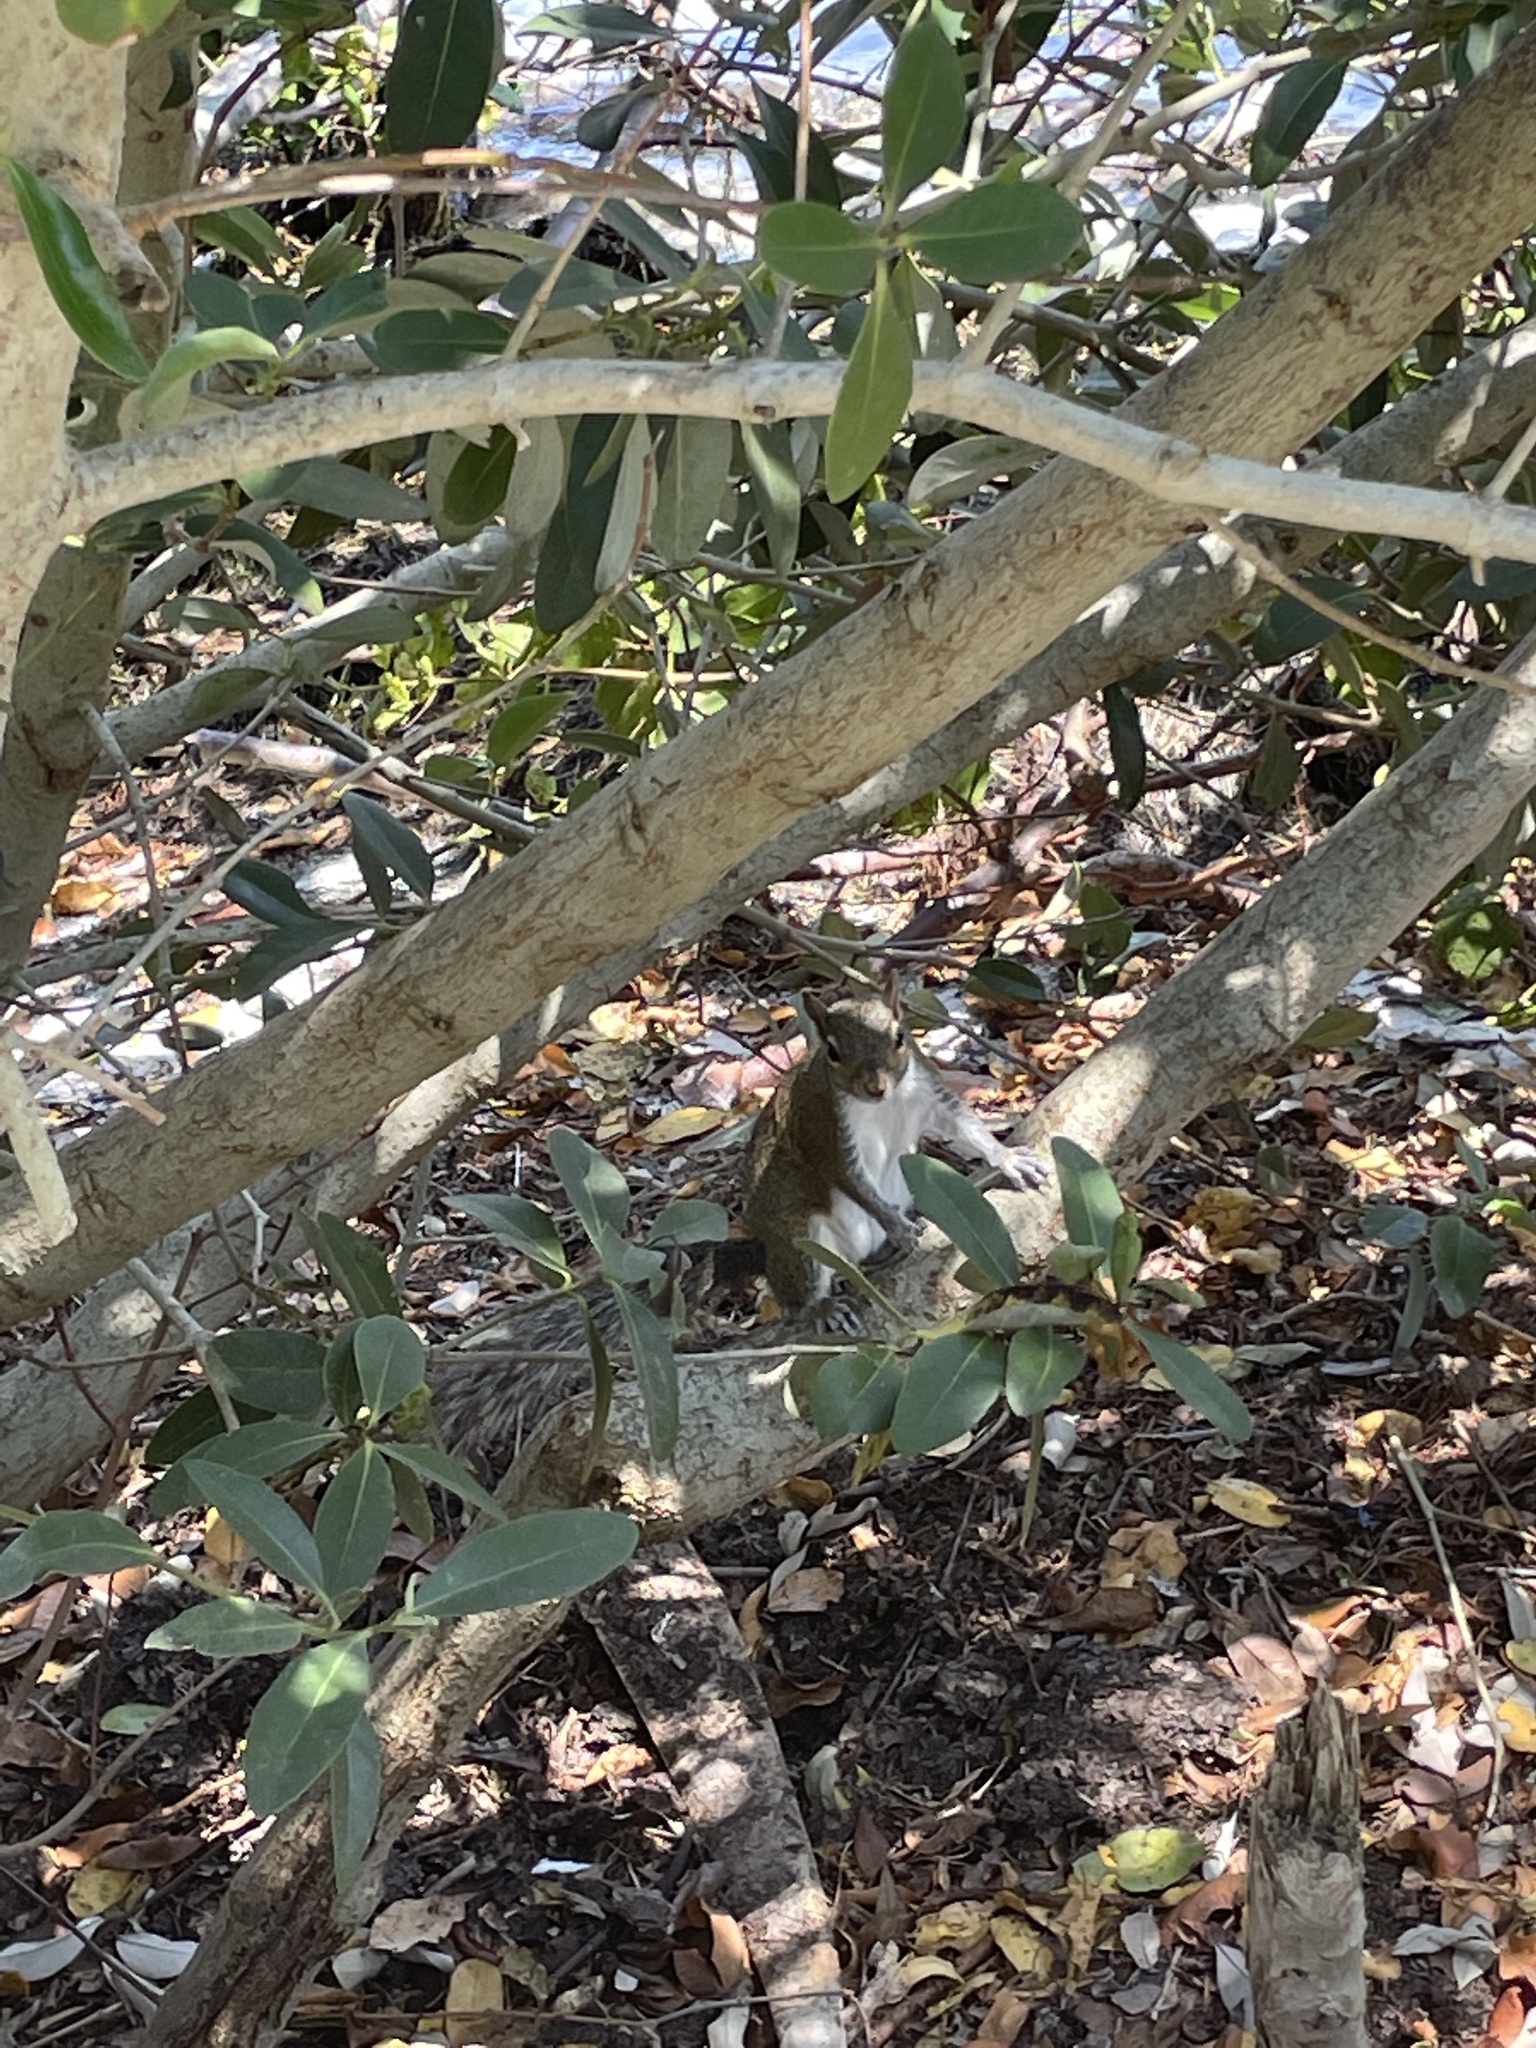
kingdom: Animalia
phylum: Chordata
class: Mammalia
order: Rodentia
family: Sciuridae
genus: Sciurus
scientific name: Sciurus carolinensis
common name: Eastern gray squirrel
